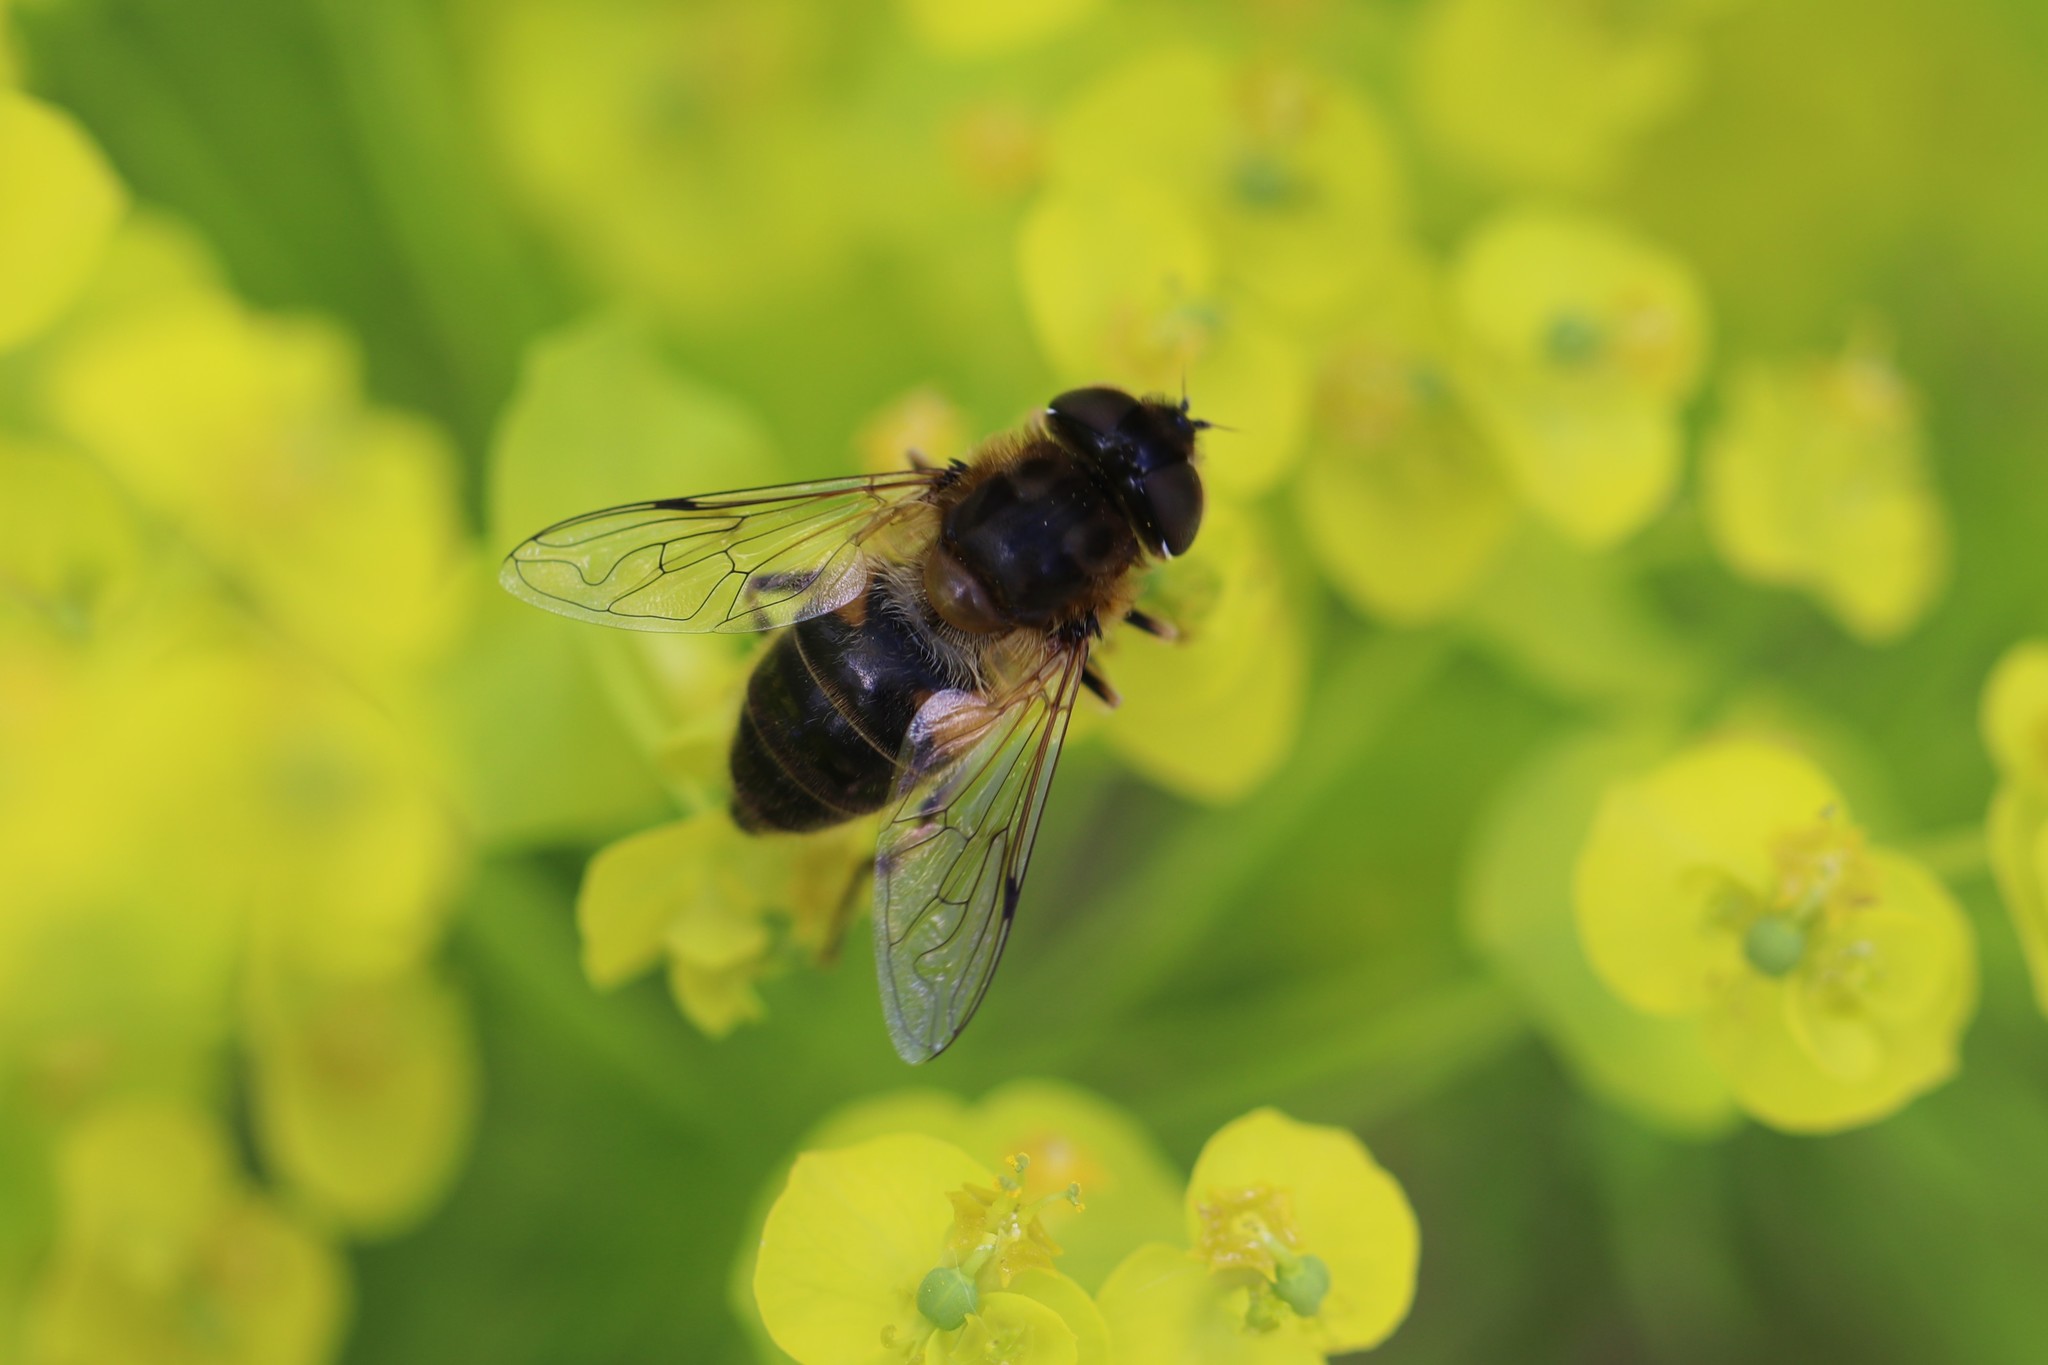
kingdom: Animalia
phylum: Arthropoda
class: Insecta
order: Diptera
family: Syrphidae
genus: Eristalis
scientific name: Eristalis pertinax
